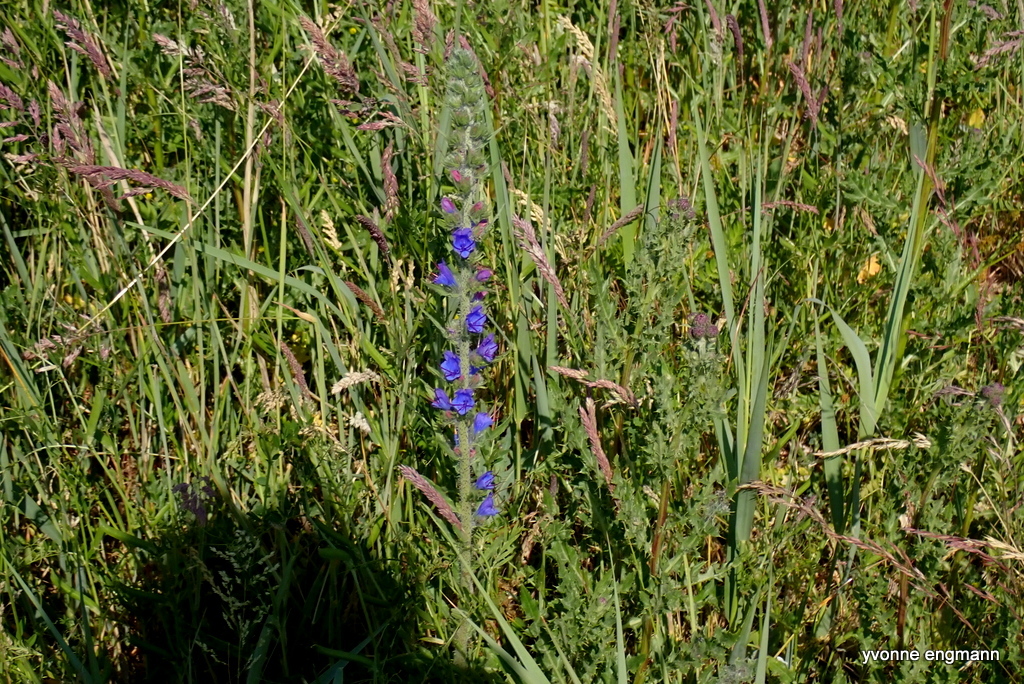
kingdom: Plantae
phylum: Tracheophyta
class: Magnoliopsida
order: Boraginales
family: Boraginaceae
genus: Echium
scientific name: Echium vulgare
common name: Common viper's bugloss
